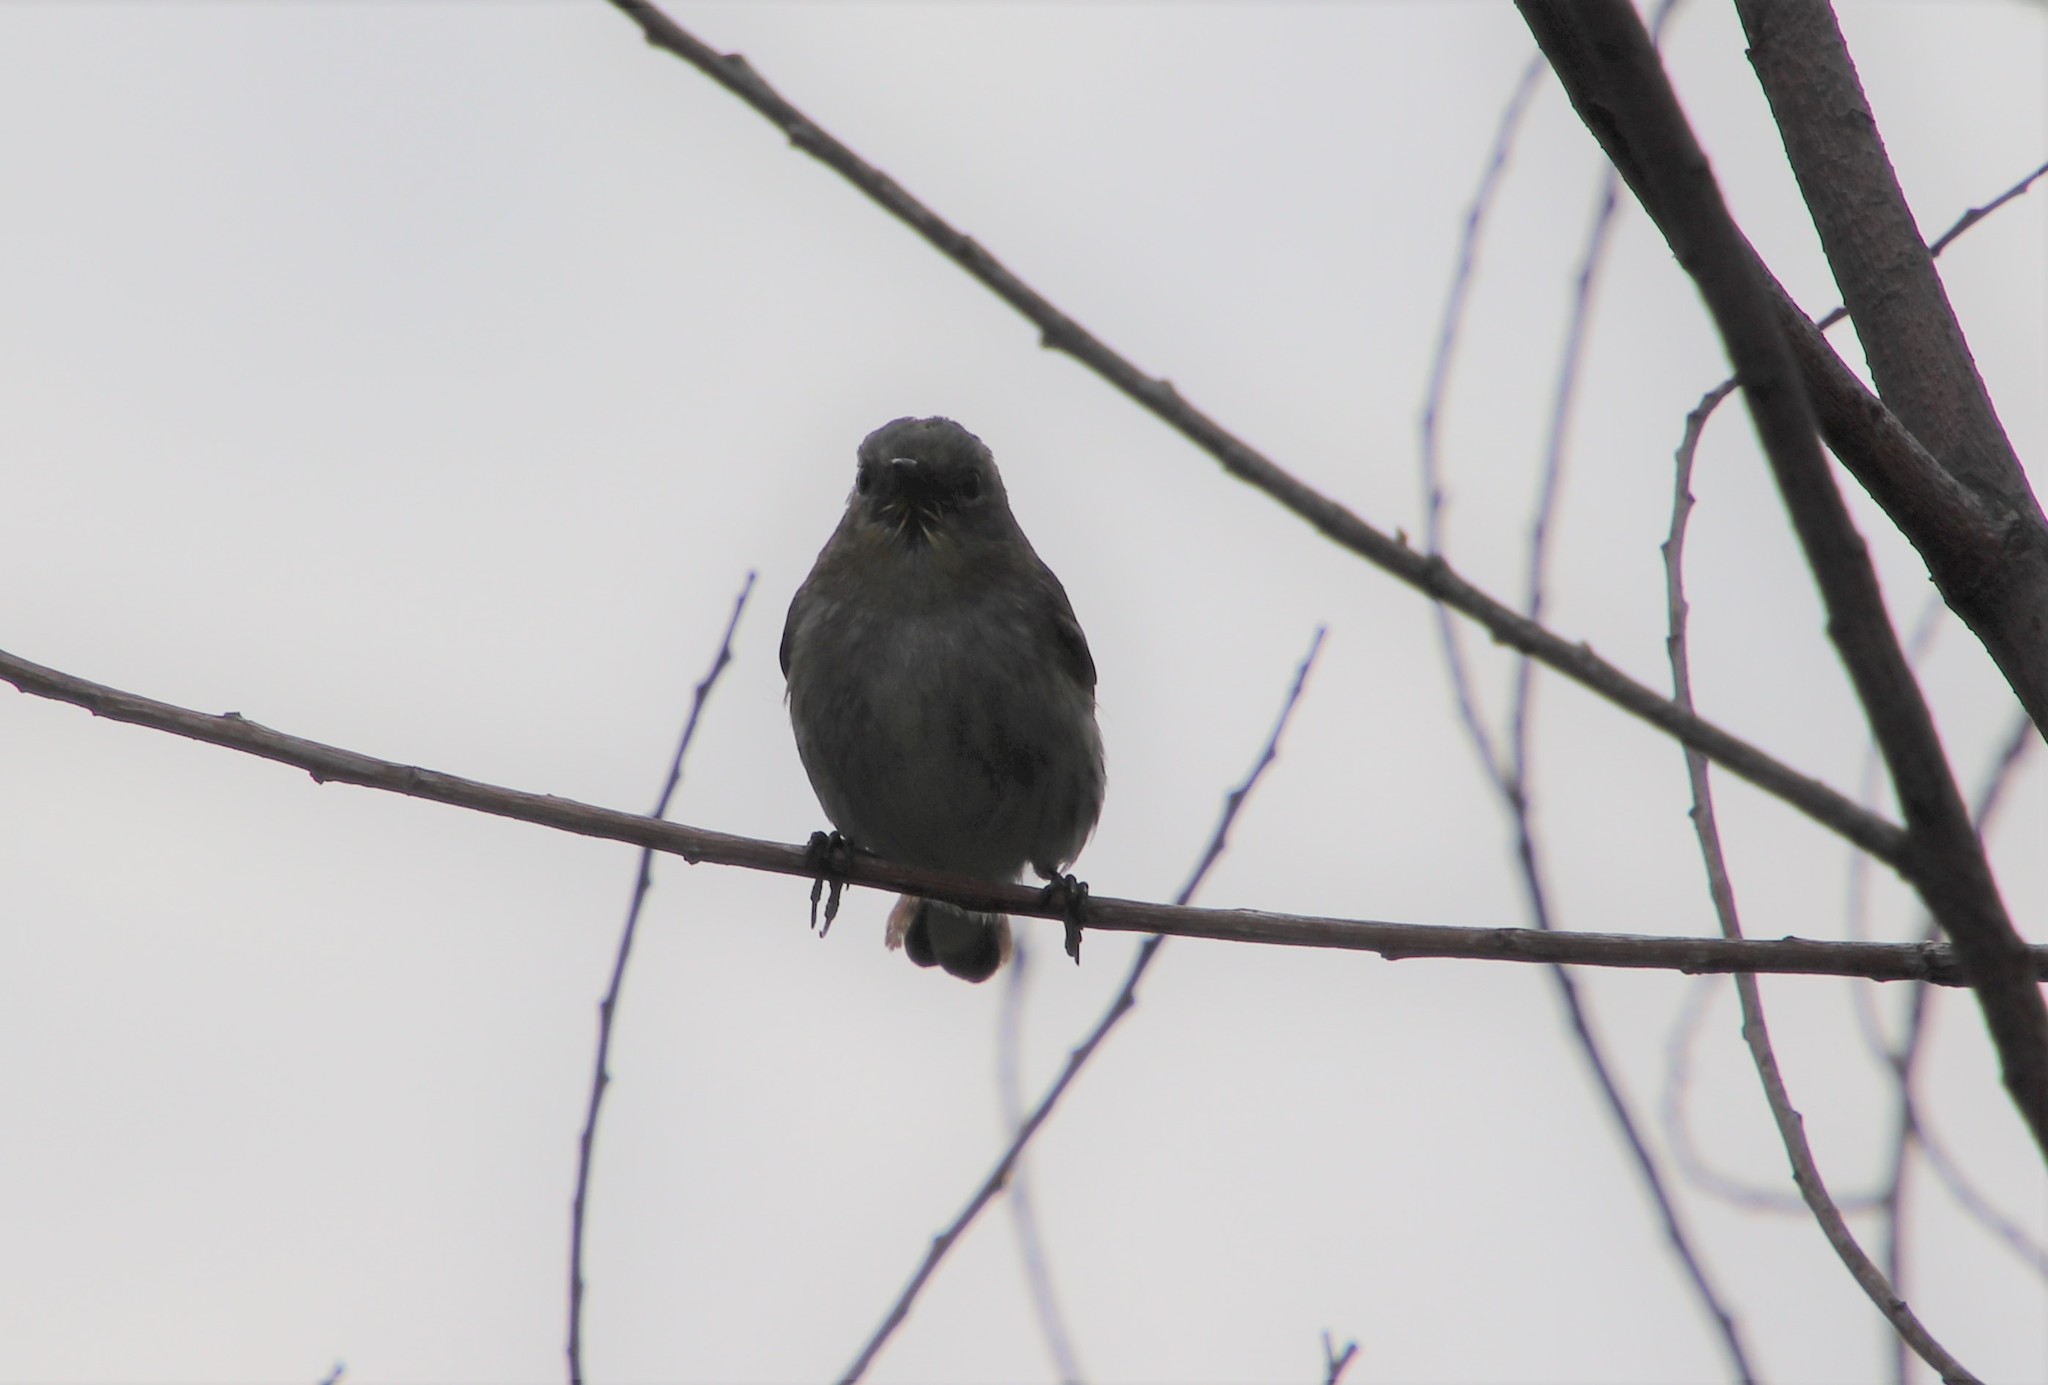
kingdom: Animalia
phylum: Chordata
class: Aves
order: Passeriformes
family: Parulidae
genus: Setophaga
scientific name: Setophaga coronata
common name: Myrtle warbler
